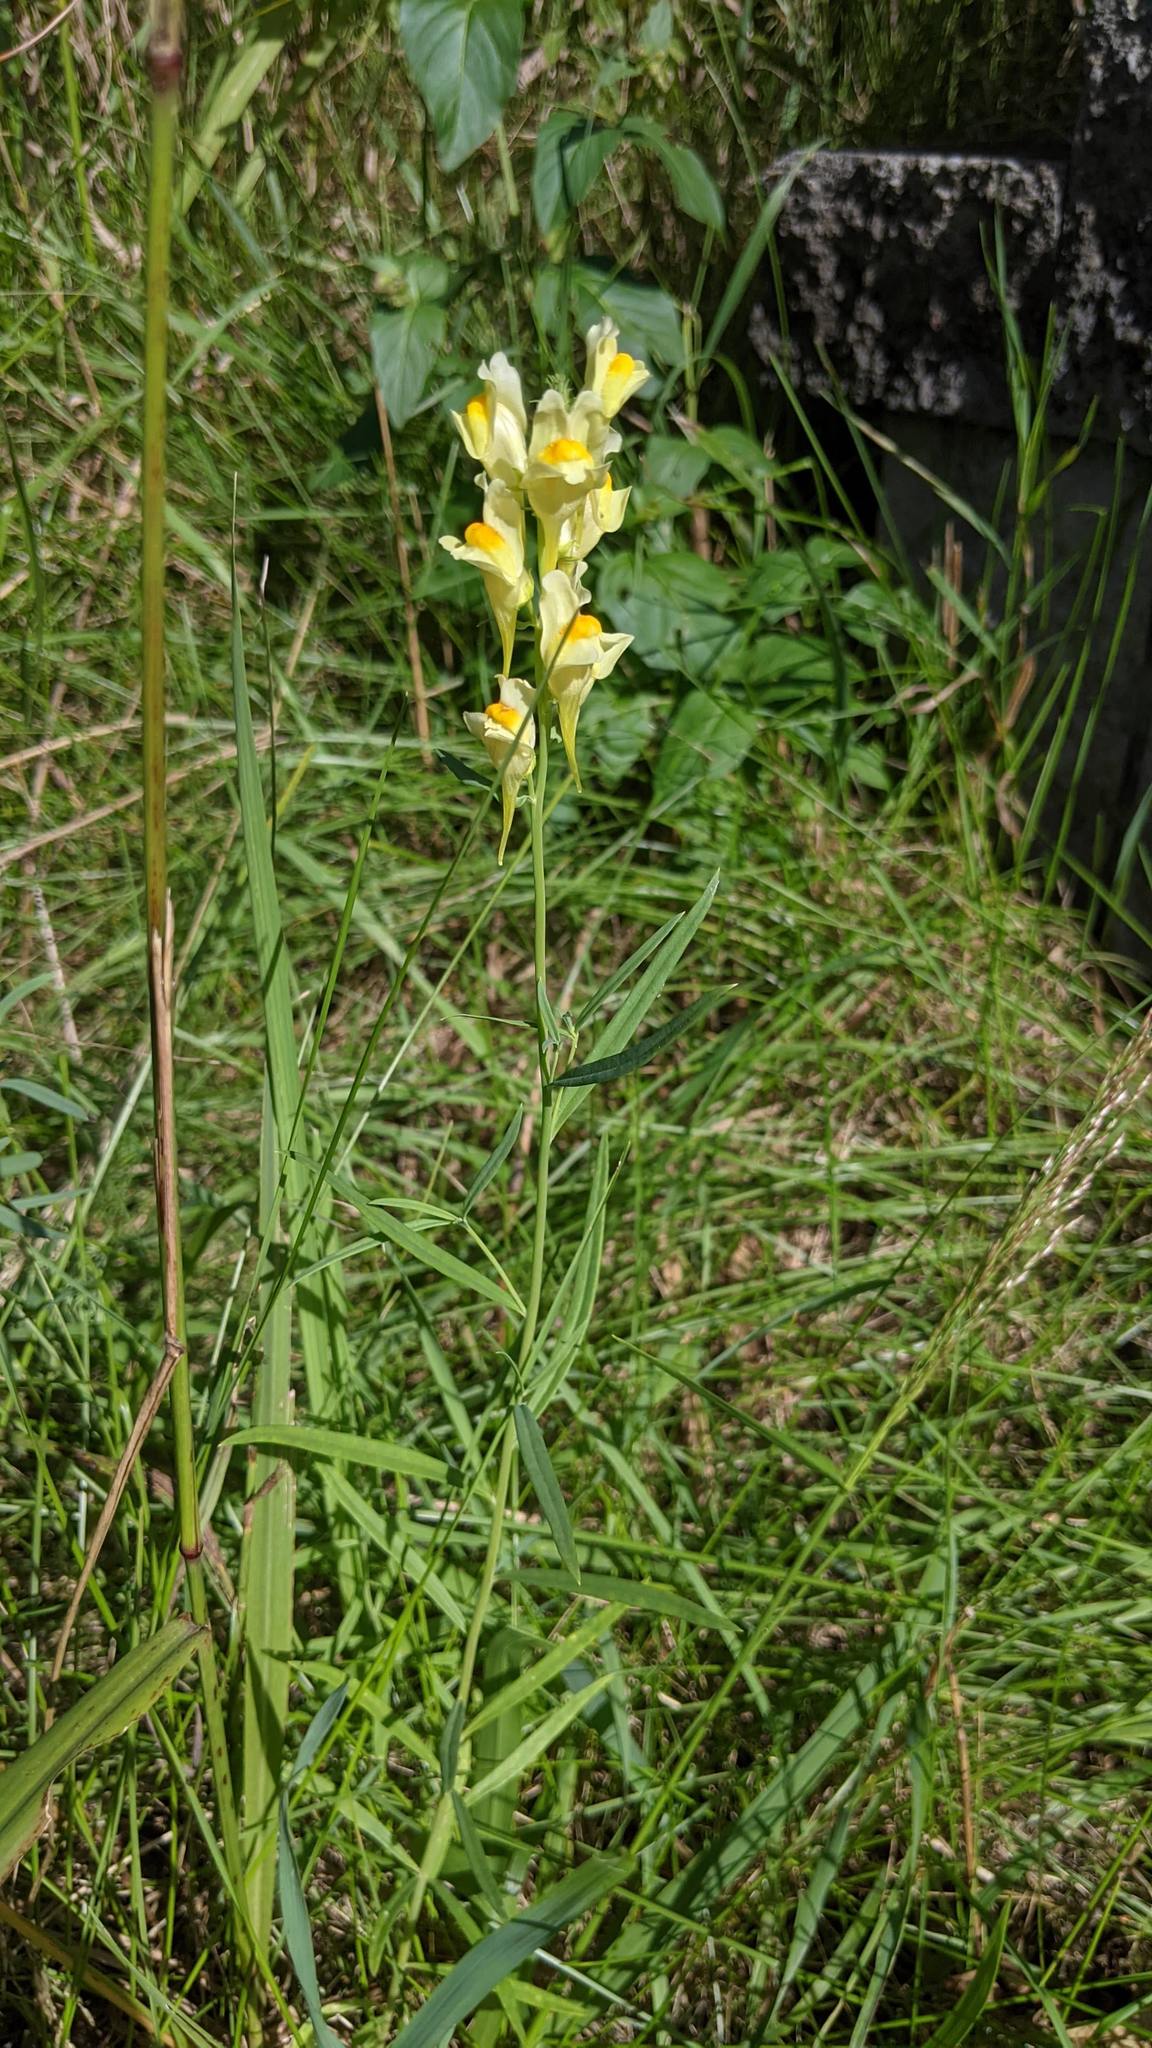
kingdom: Plantae
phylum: Tracheophyta
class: Magnoliopsida
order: Lamiales
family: Plantaginaceae
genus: Linaria
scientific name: Linaria vulgaris
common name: Butter and eggs
